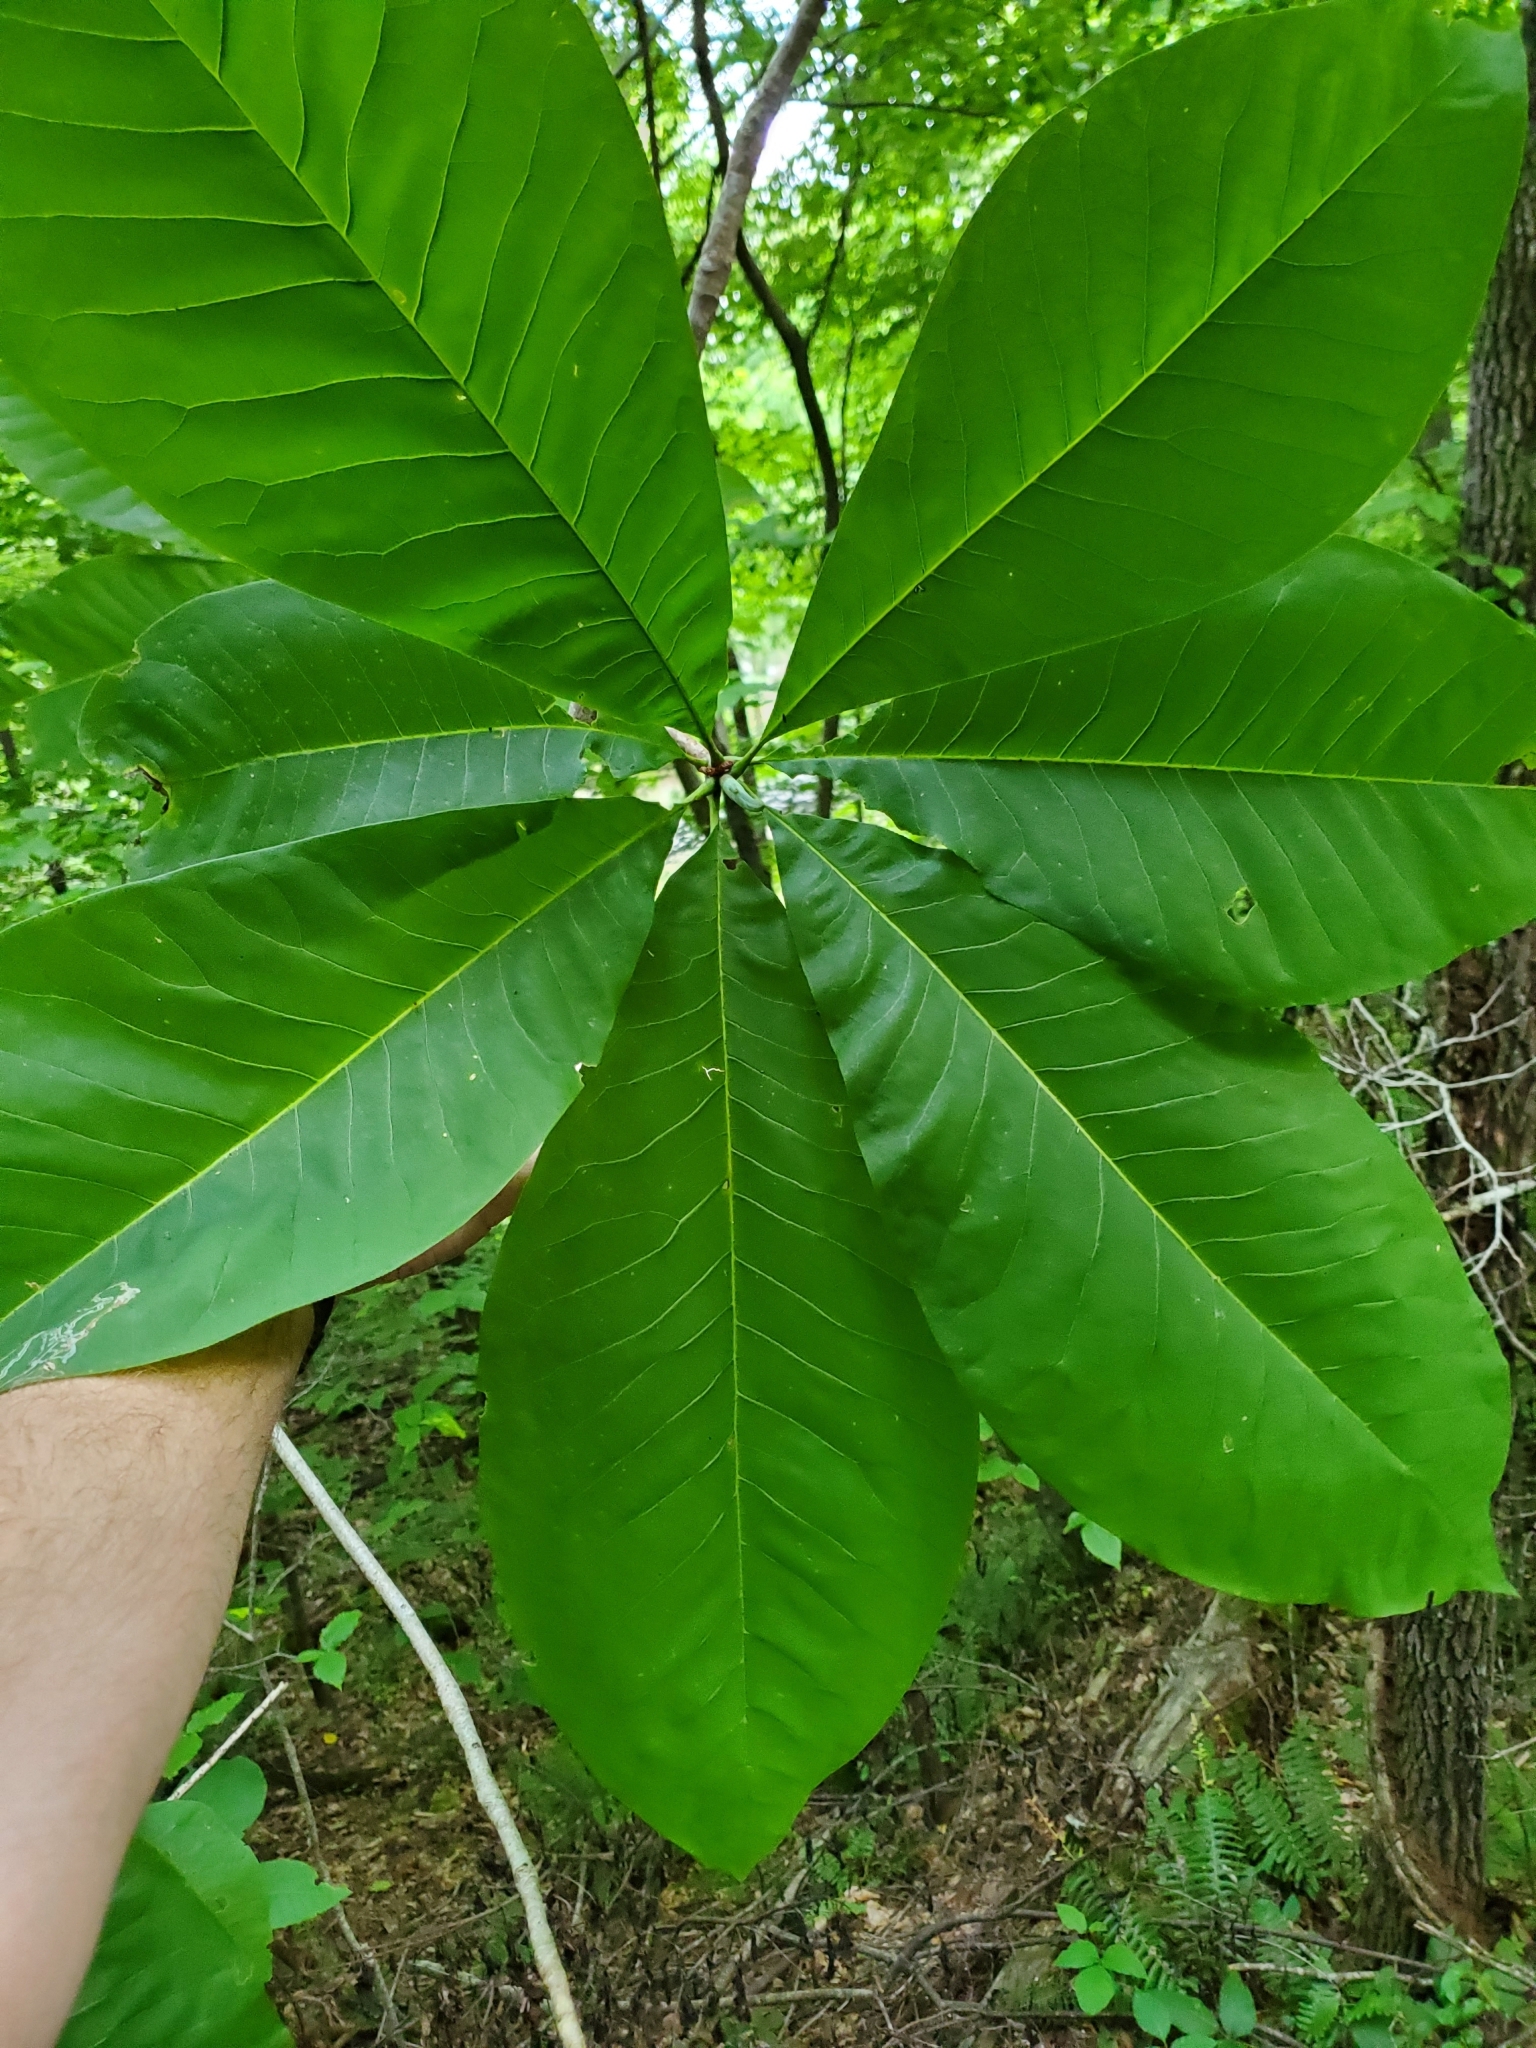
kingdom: Plantae
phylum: Tracheophyta
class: Magnoliopsida
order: Magnoliales
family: Magnoliaceae
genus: Magnolia
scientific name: Magnolia tripetala
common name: Umbrella magnolia
